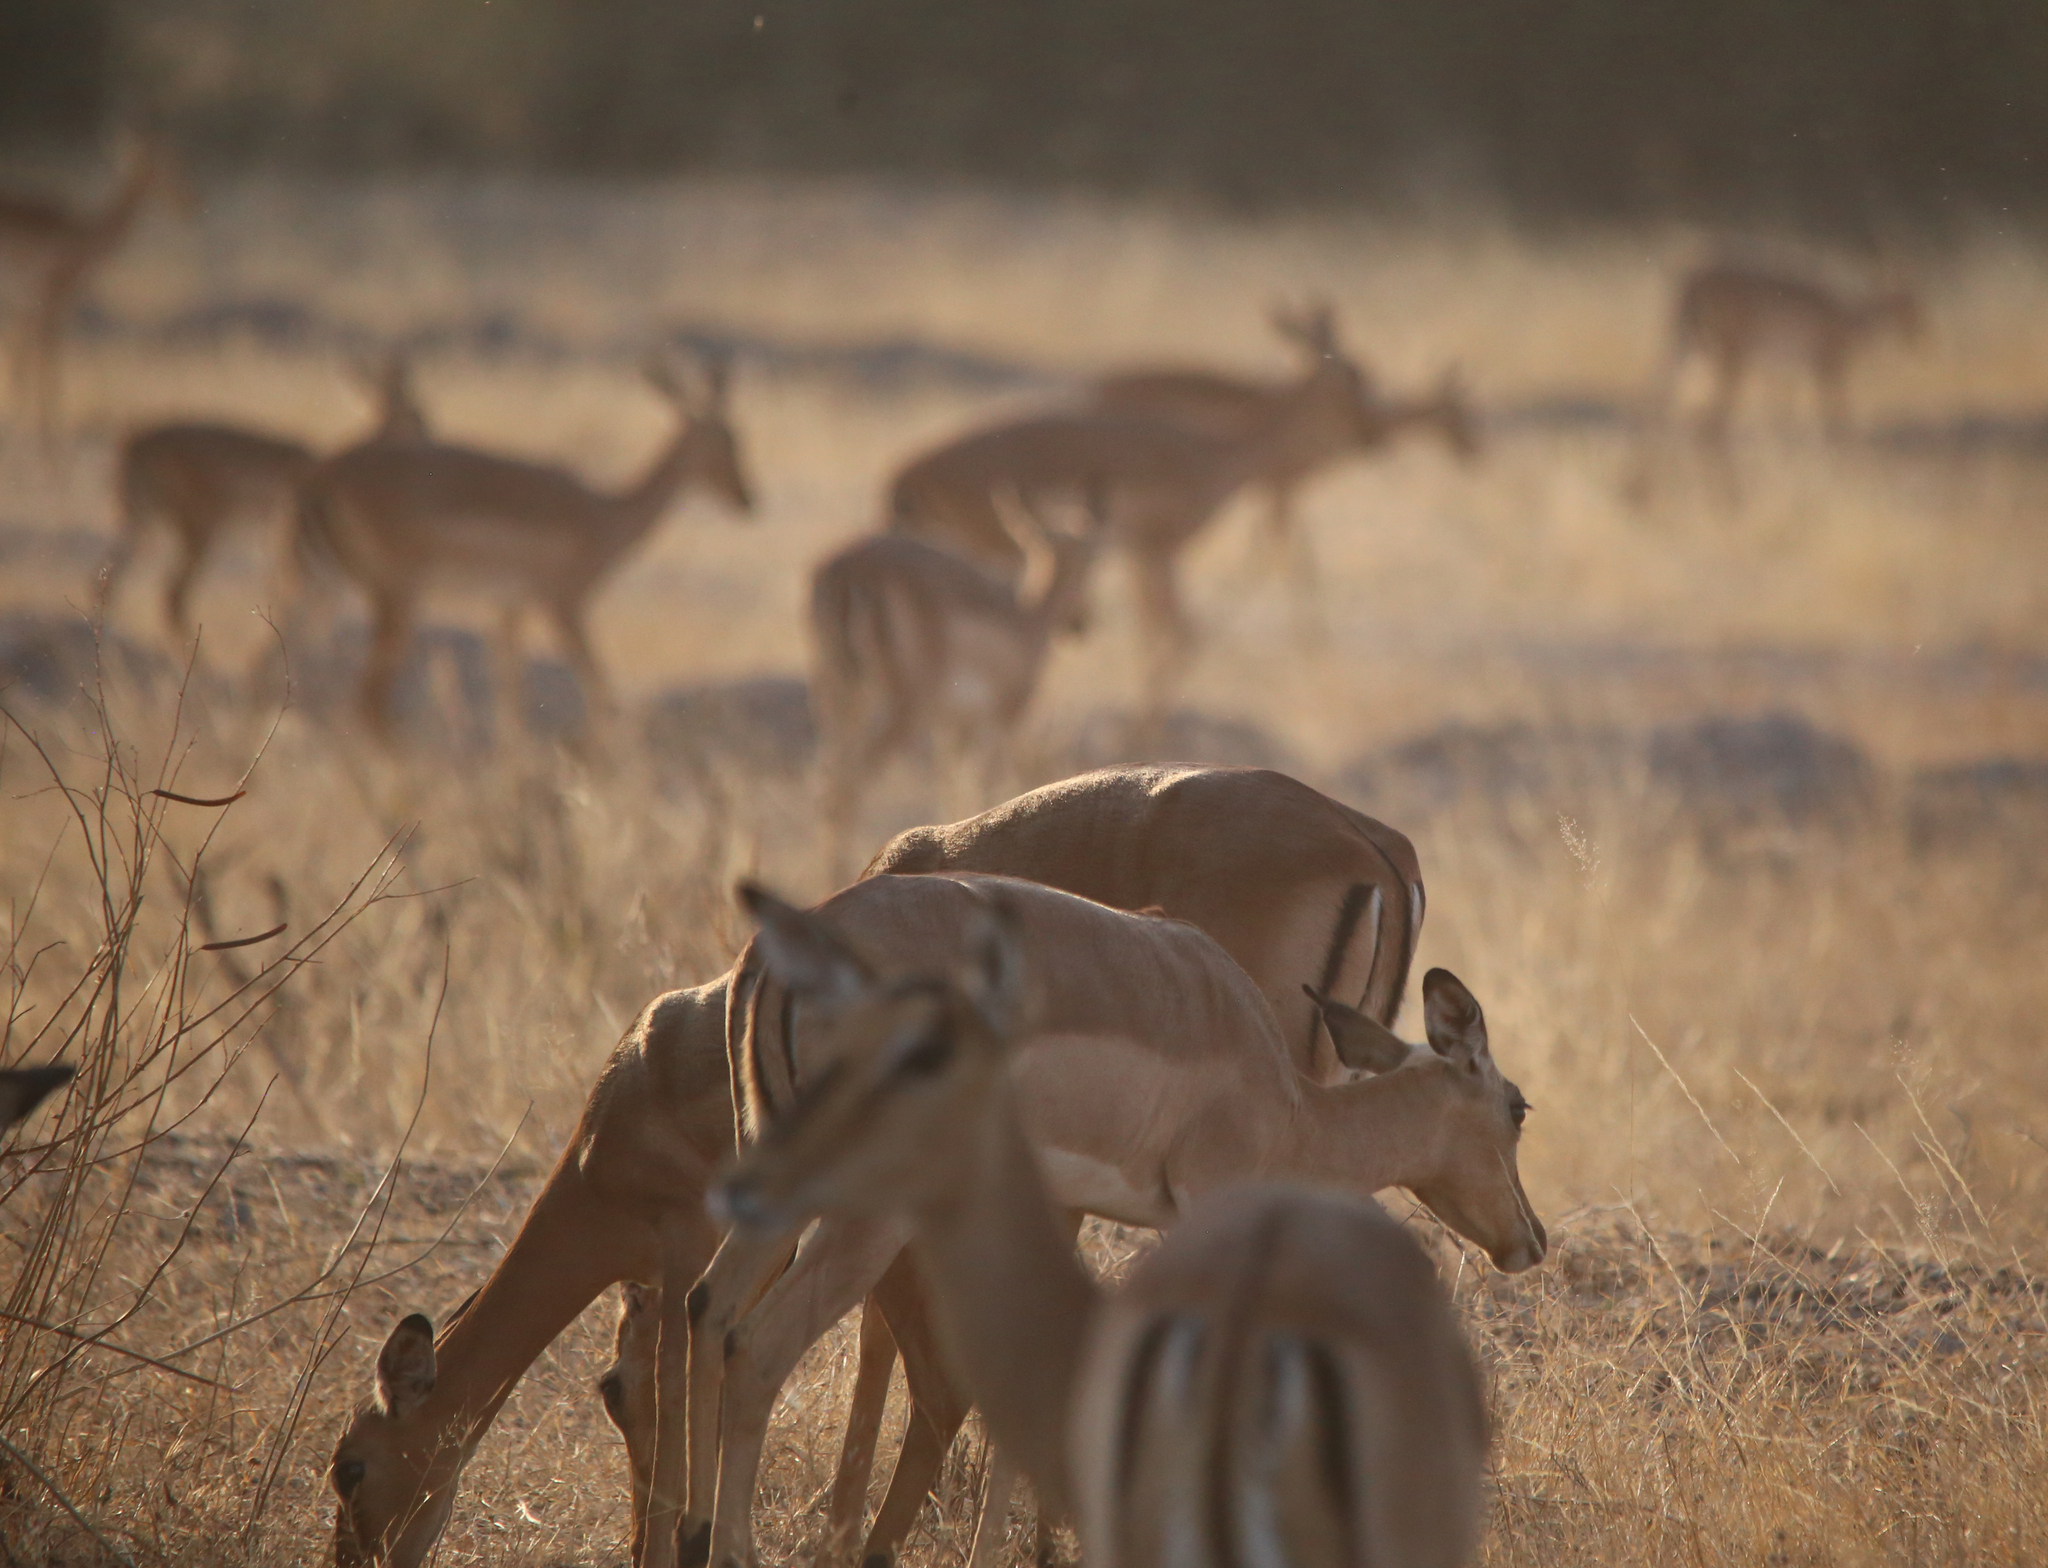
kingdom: Animalia
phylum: Chordata
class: Mammalia
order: Artiodactyla
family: Bovidae
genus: Aepyceros
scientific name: Aepyceros melampus
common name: Impala
